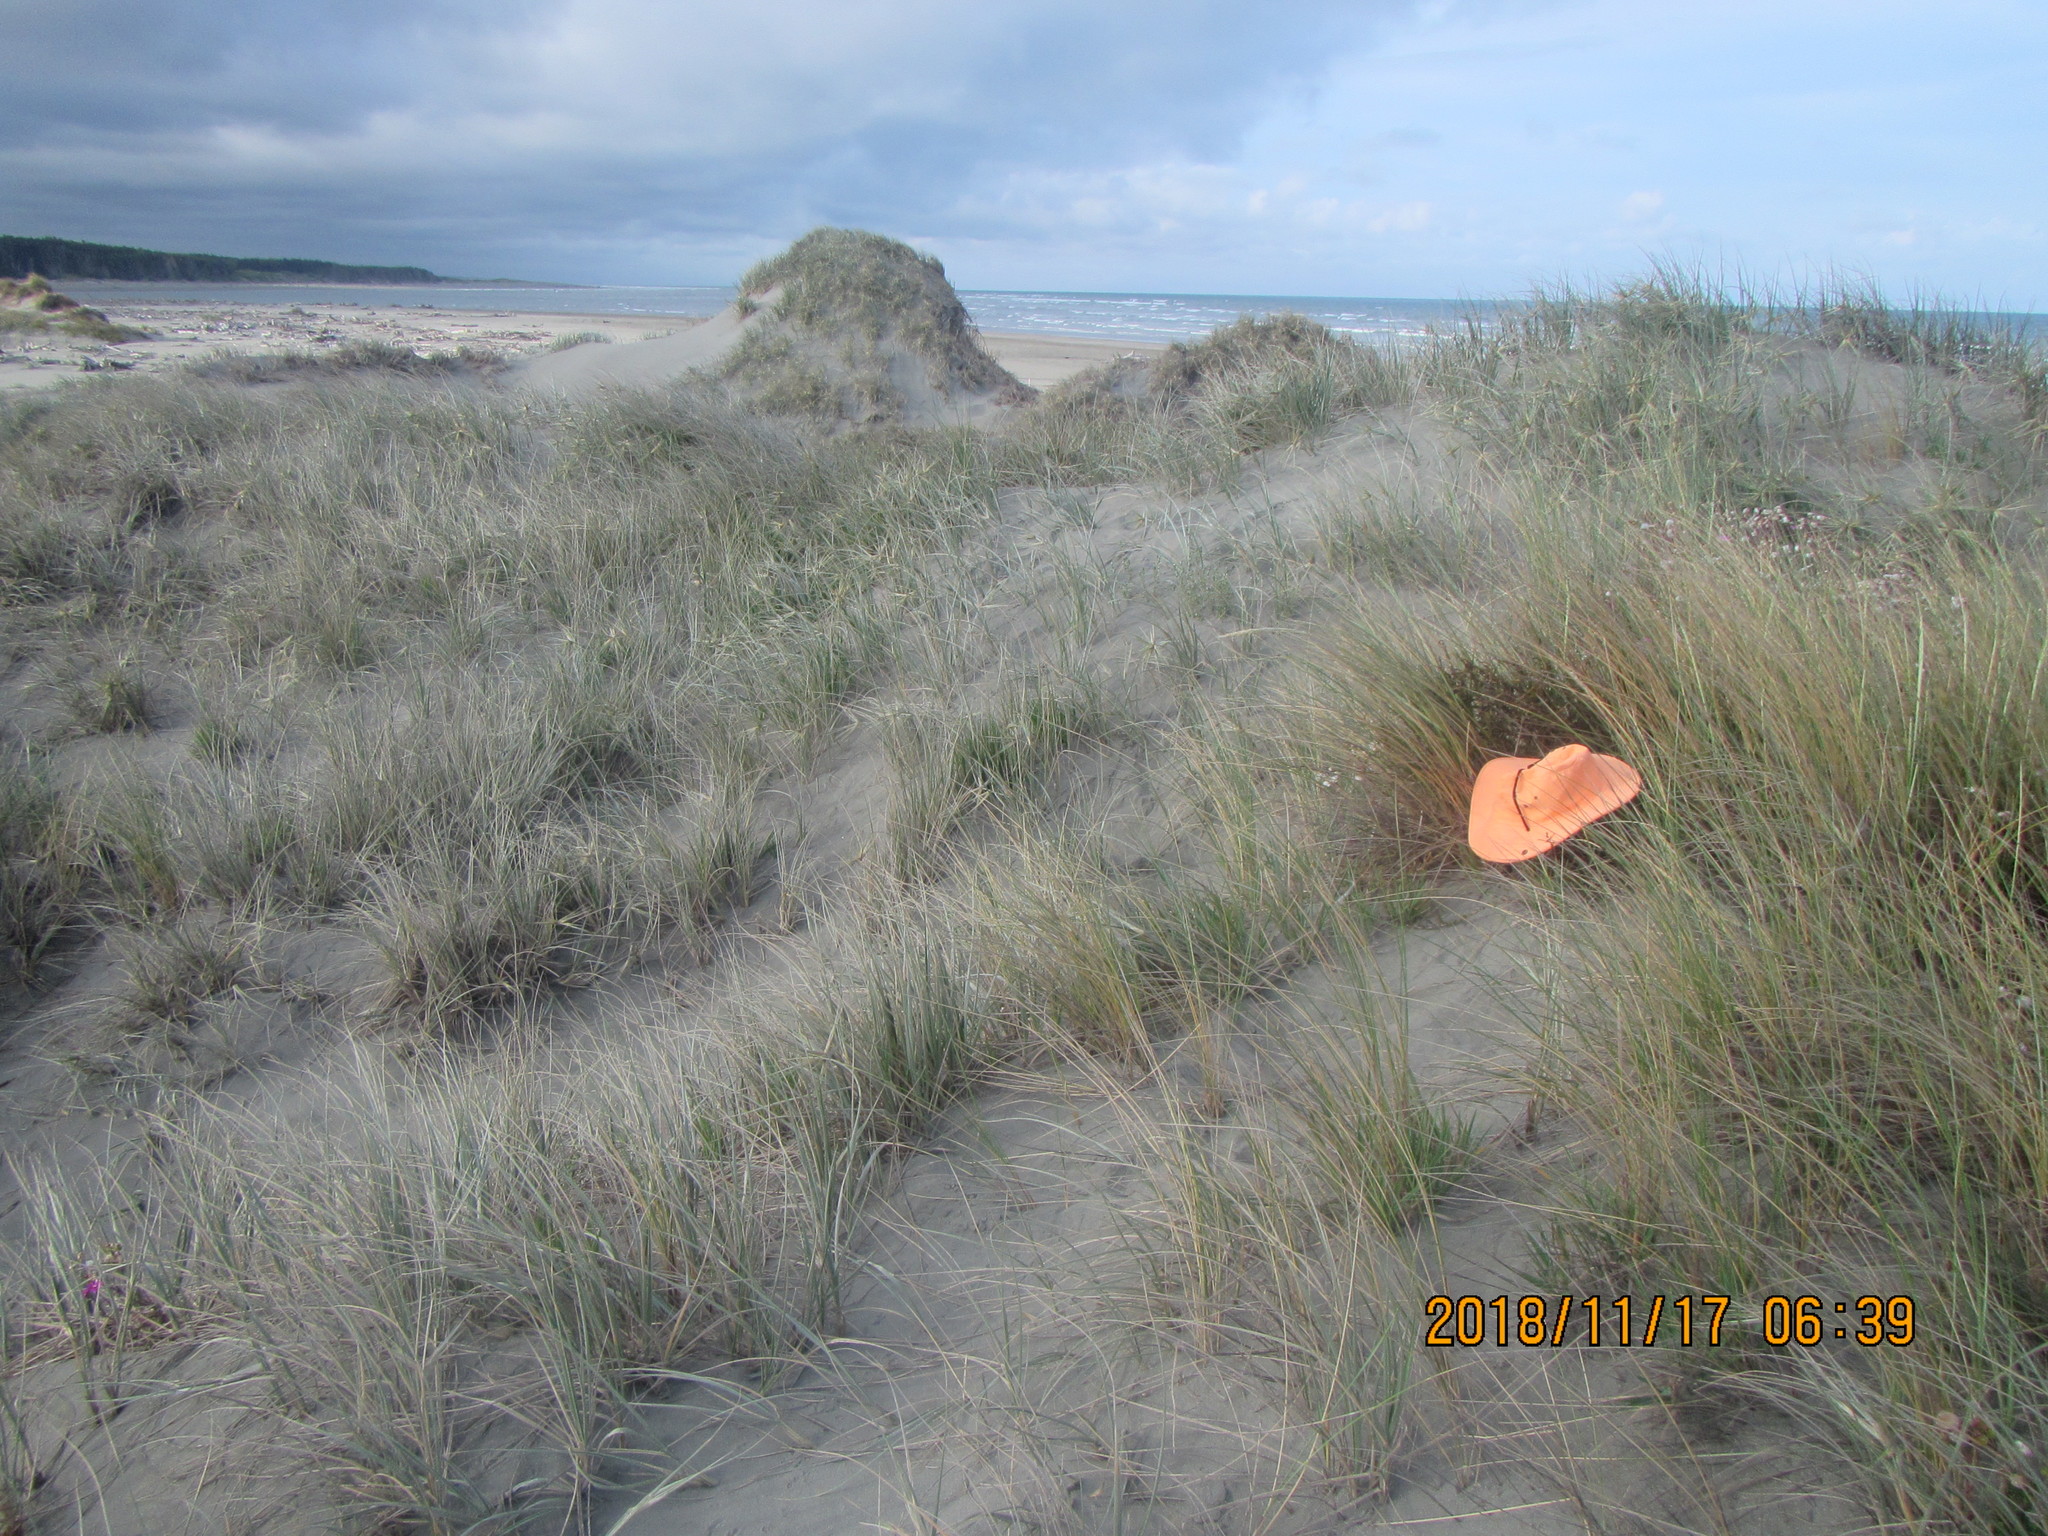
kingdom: Plantae
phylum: Tracheophyta
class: Magnoliopsida
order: Gentianales
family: Rubiaceae
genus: Coprosma
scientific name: Coprosma acerosa
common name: Sand coprosma
